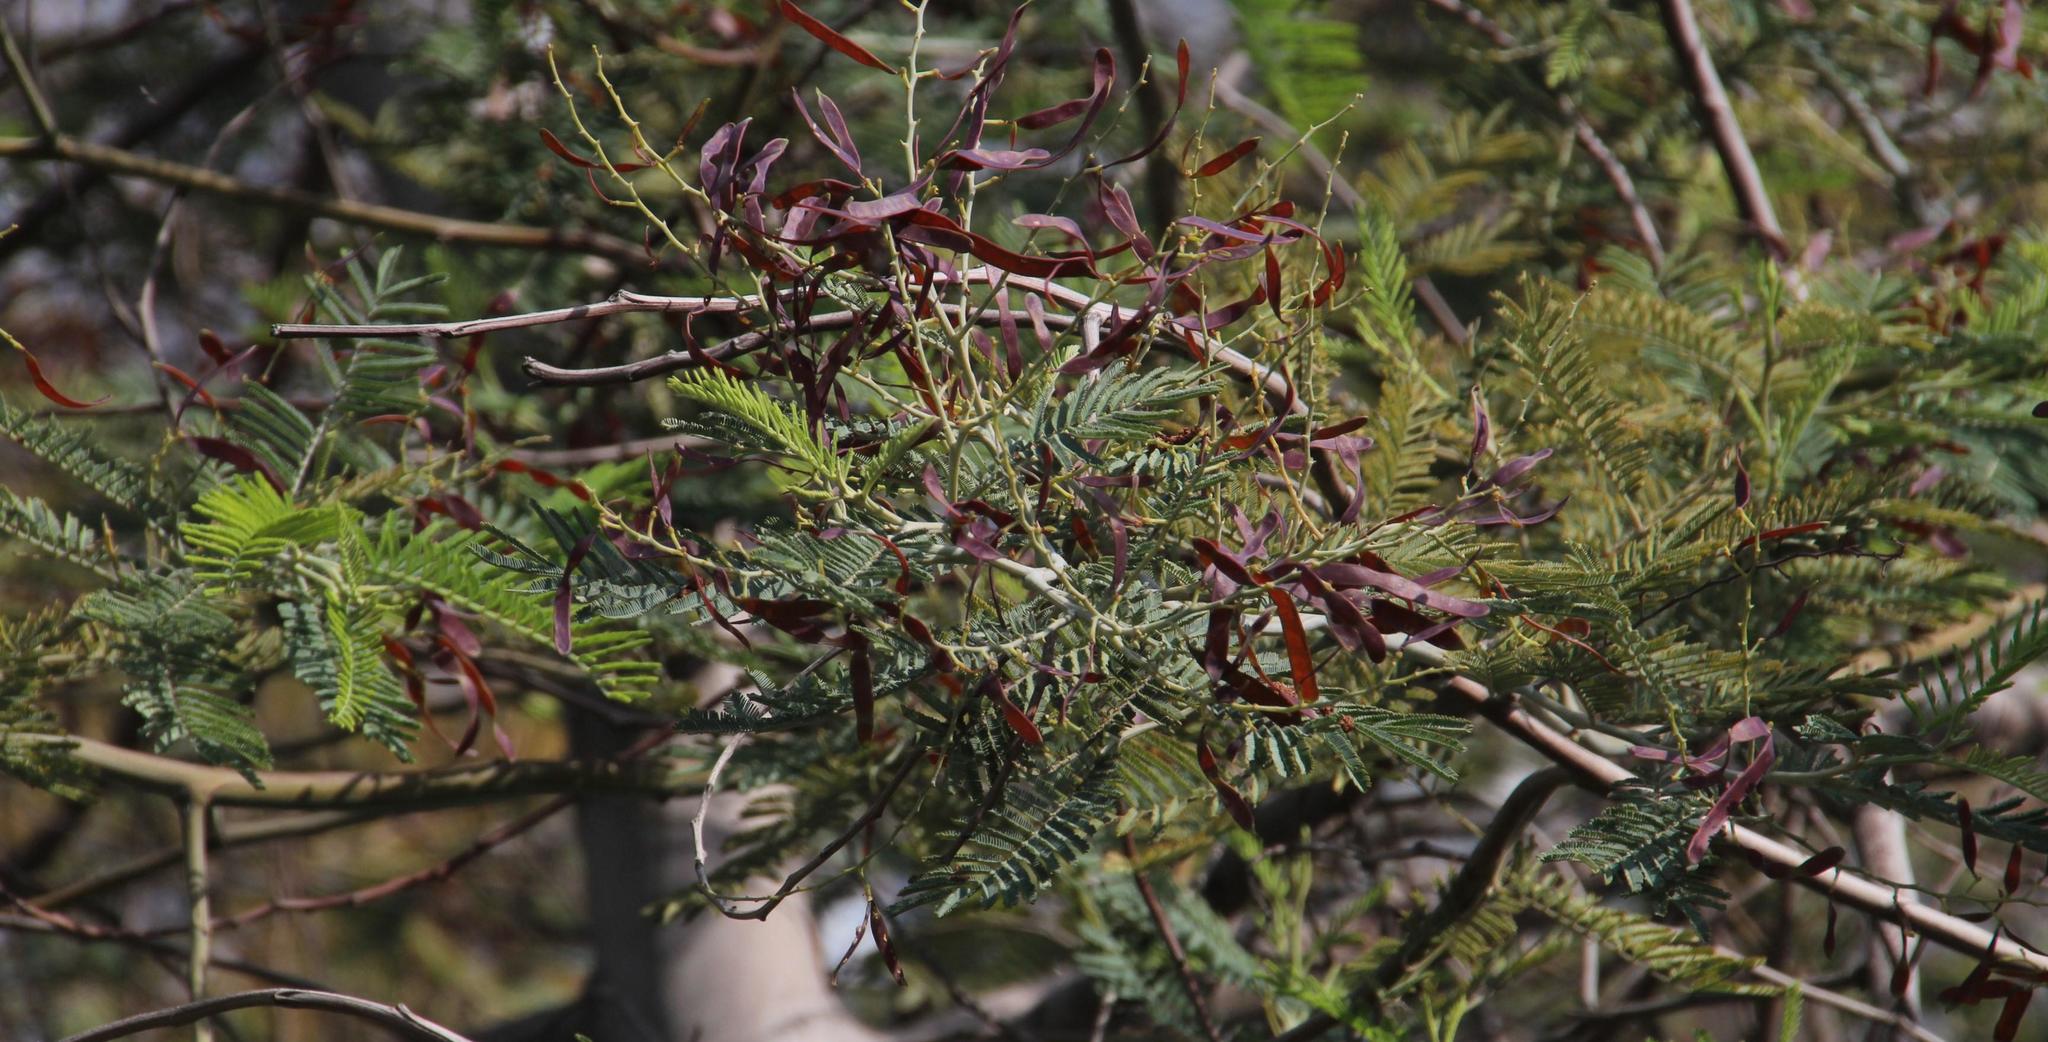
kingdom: Plantae
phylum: Tracheophyta
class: Magnoliopsida
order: Fabales
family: Fabaceae
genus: Acacia
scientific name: Acacia dealbata
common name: Silver wattle
